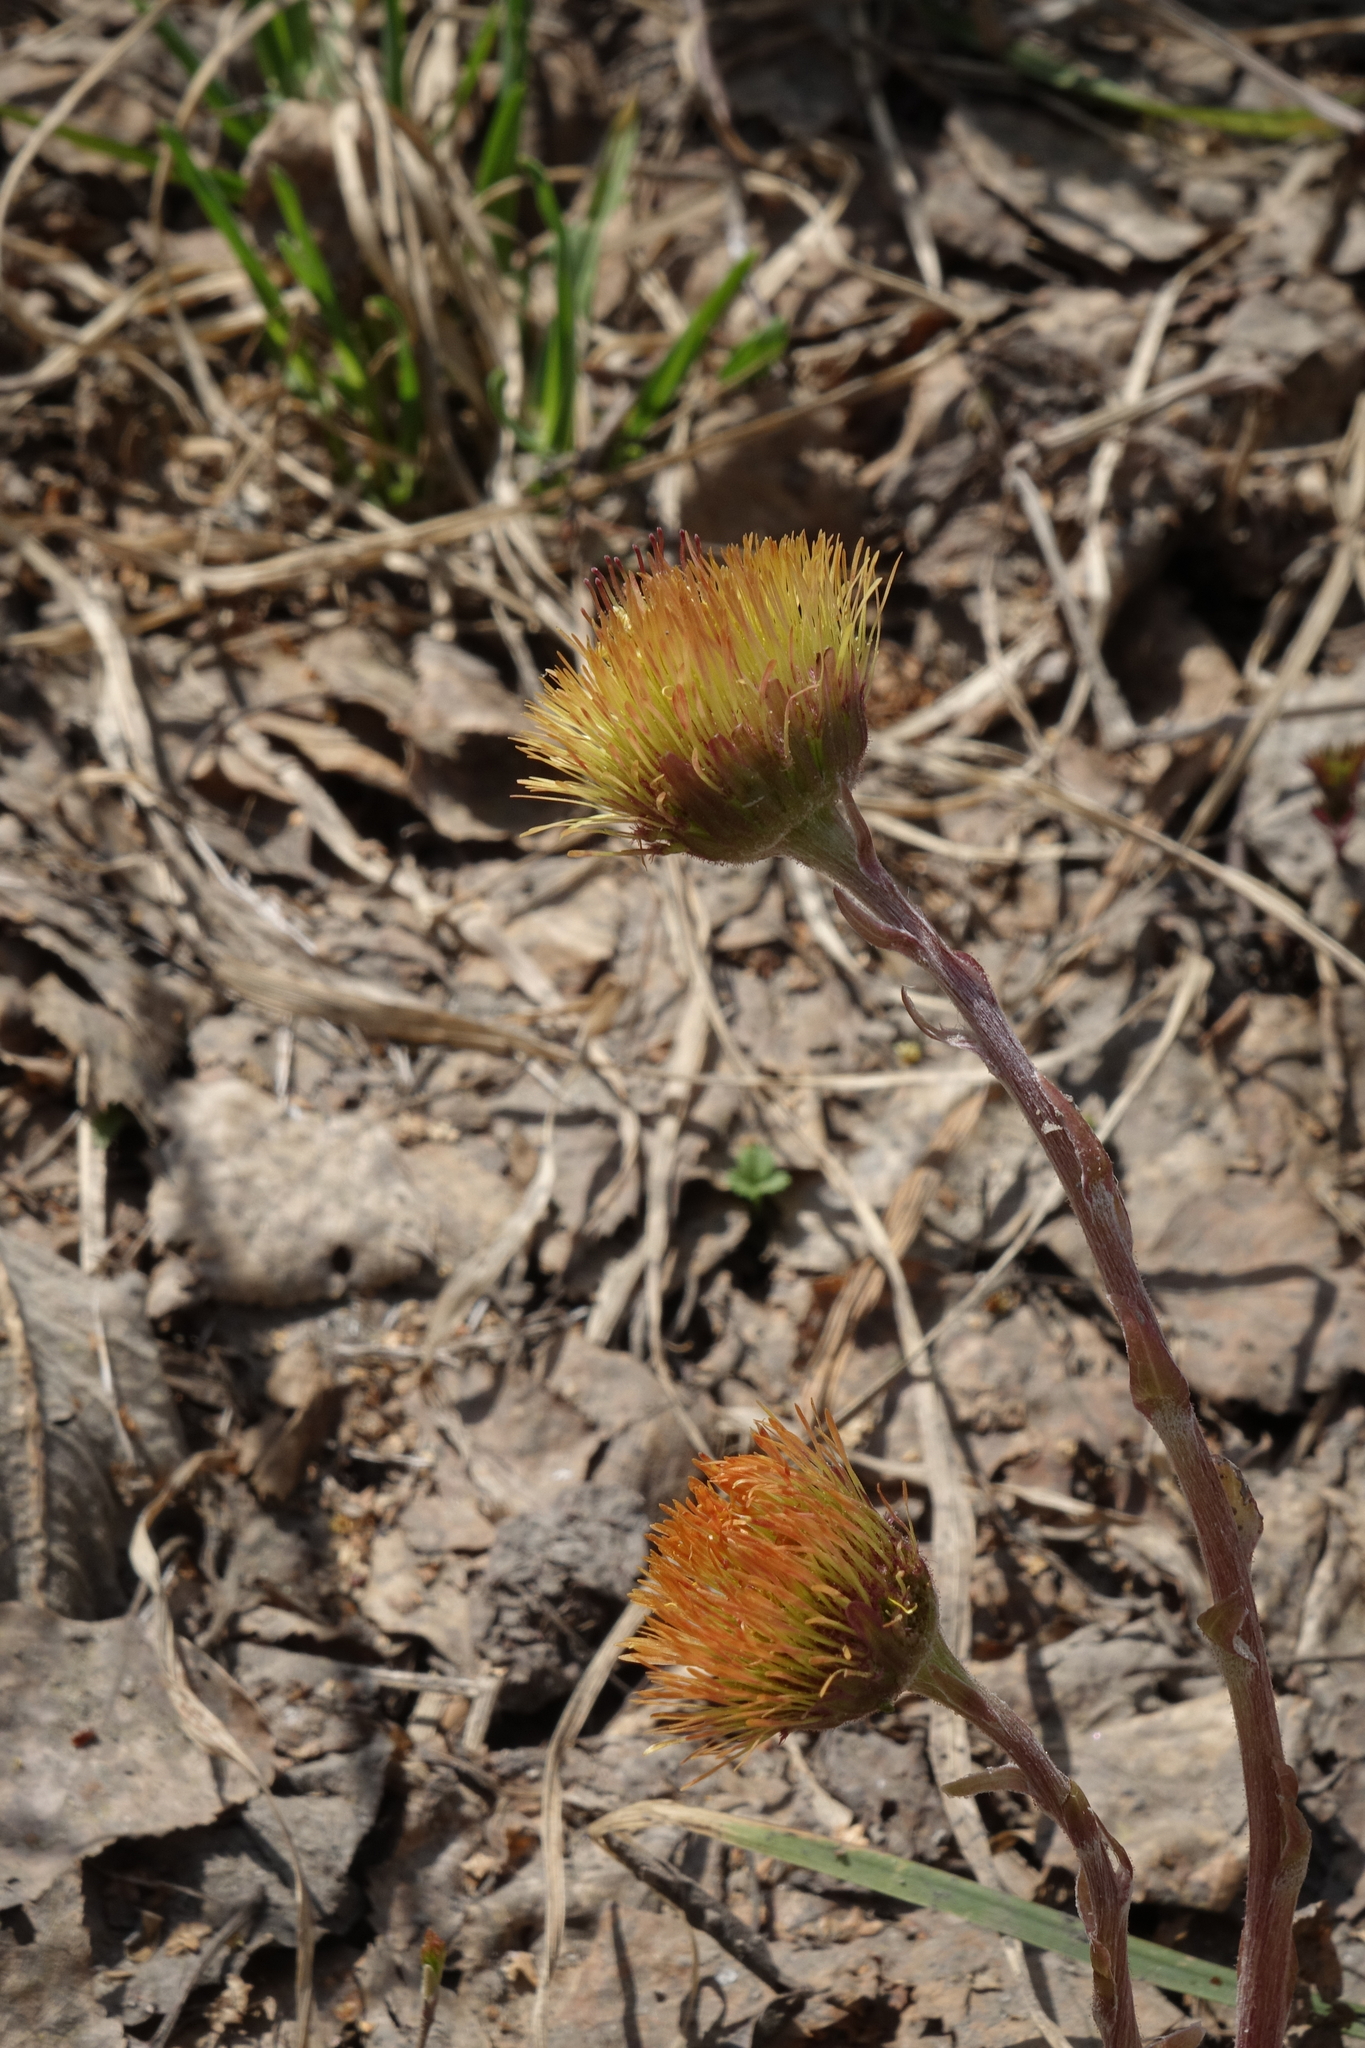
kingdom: Plantae
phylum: Tracheophyta
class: Magnoliopsida
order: Asterales
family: Asteraceae
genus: Tussilago
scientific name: Tussilago farfara
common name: Coltsfoot
